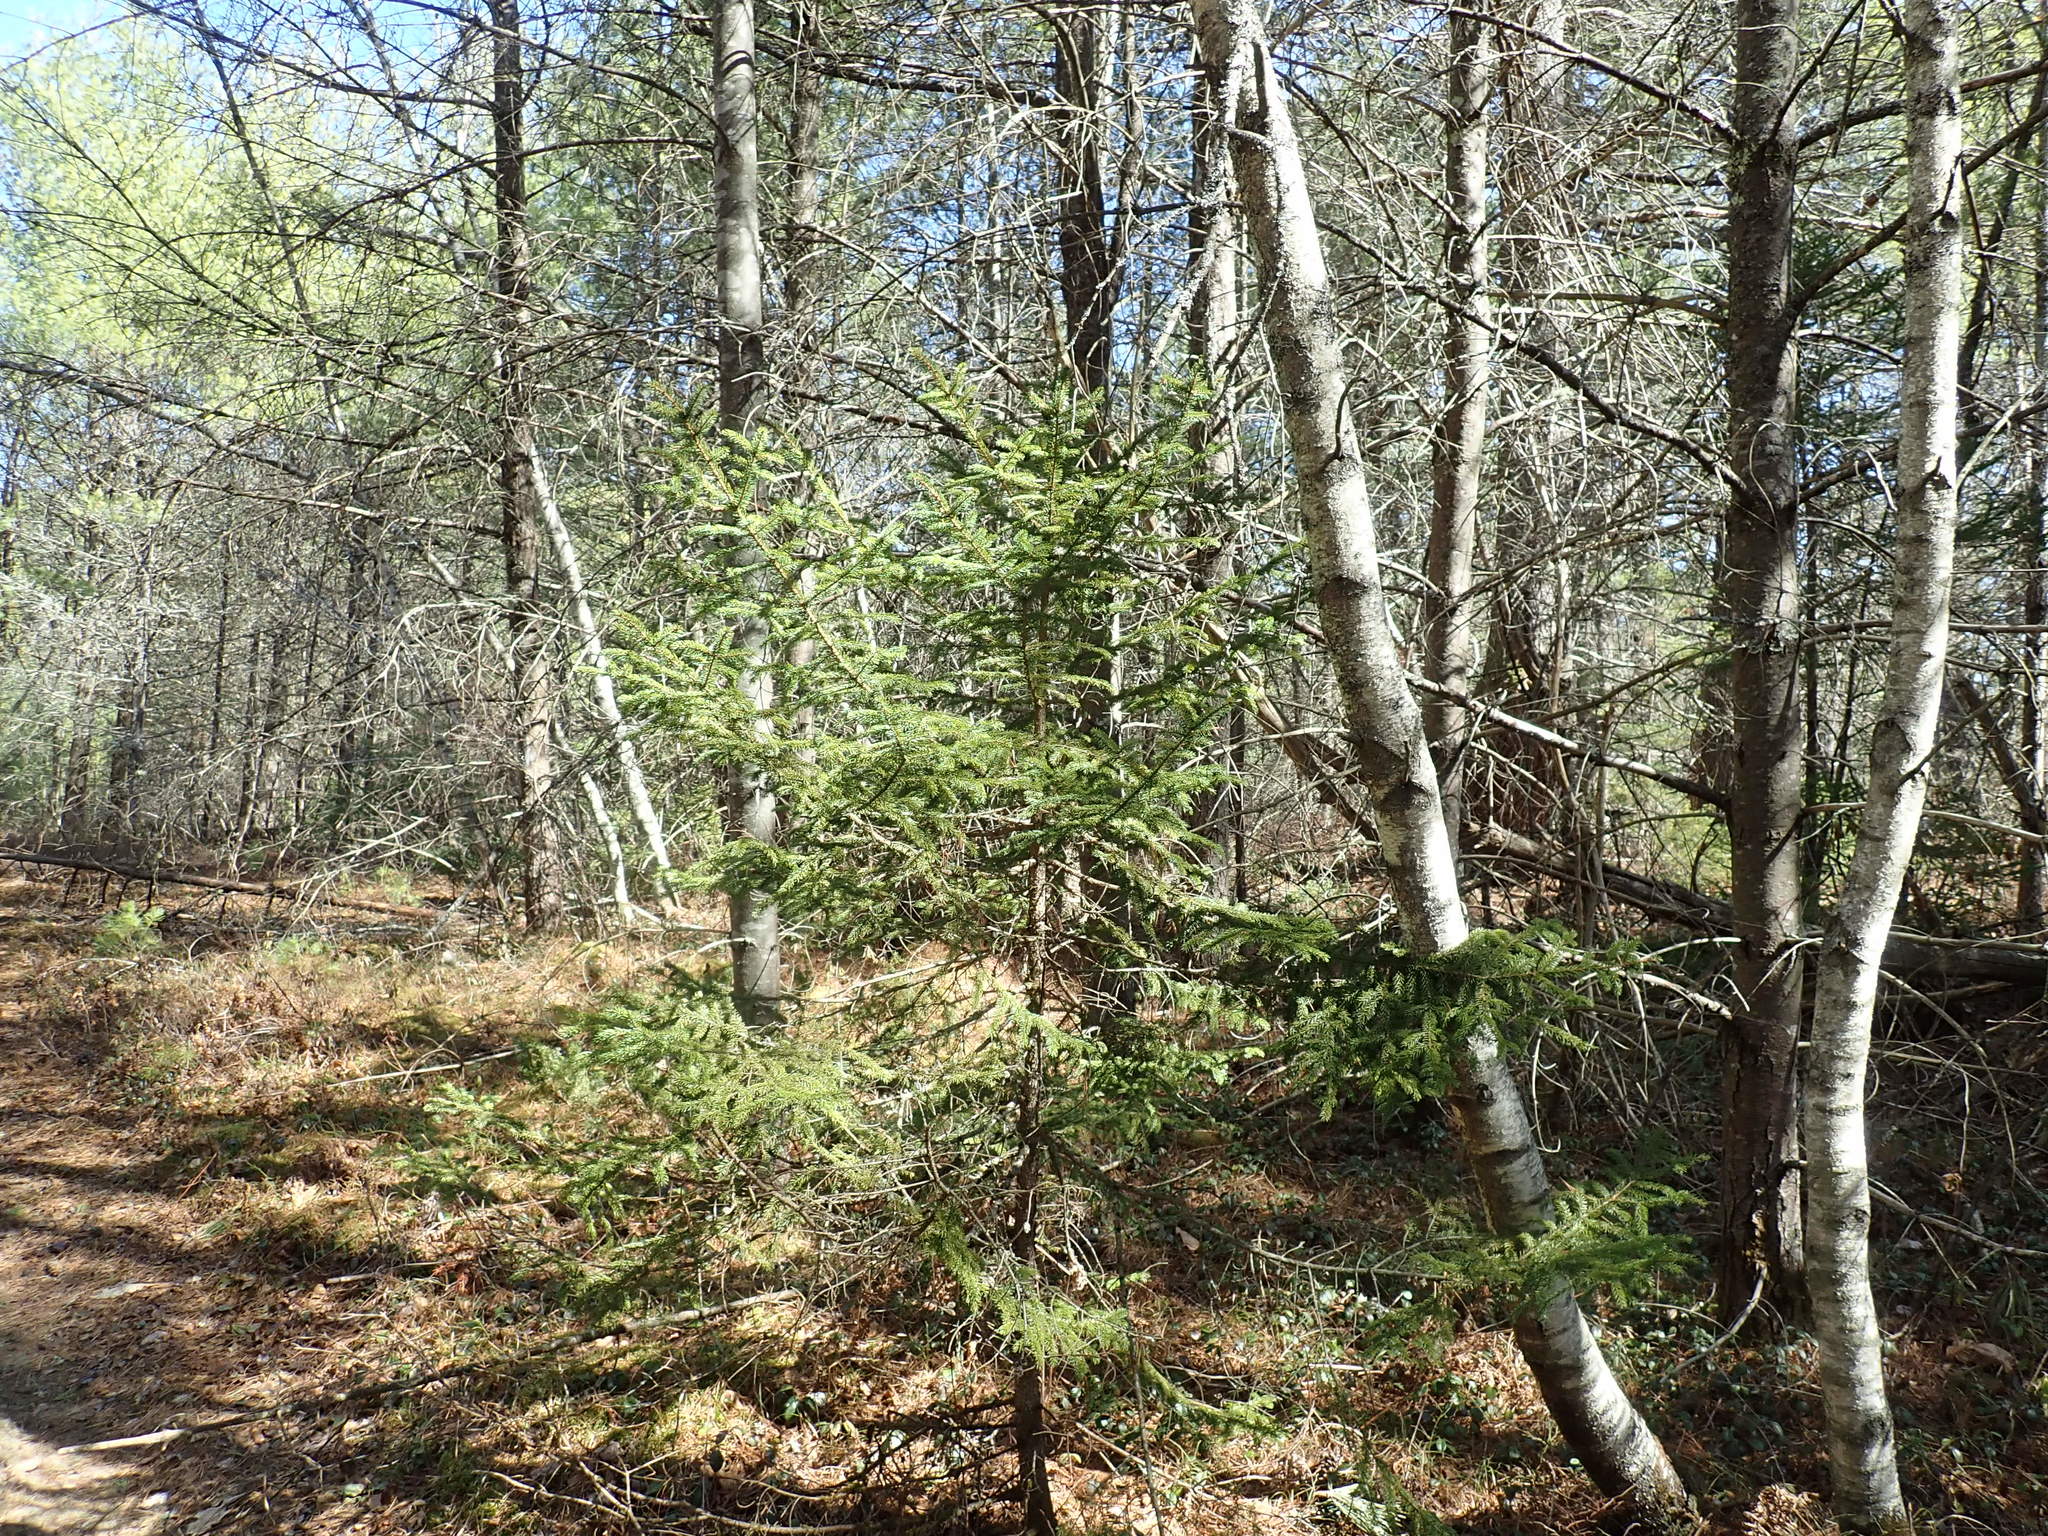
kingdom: Plantae
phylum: Tracheophyta
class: Pinopsida
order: Pinales
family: Pinaceae
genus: Picea
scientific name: Picea rubens
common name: Red spruce
